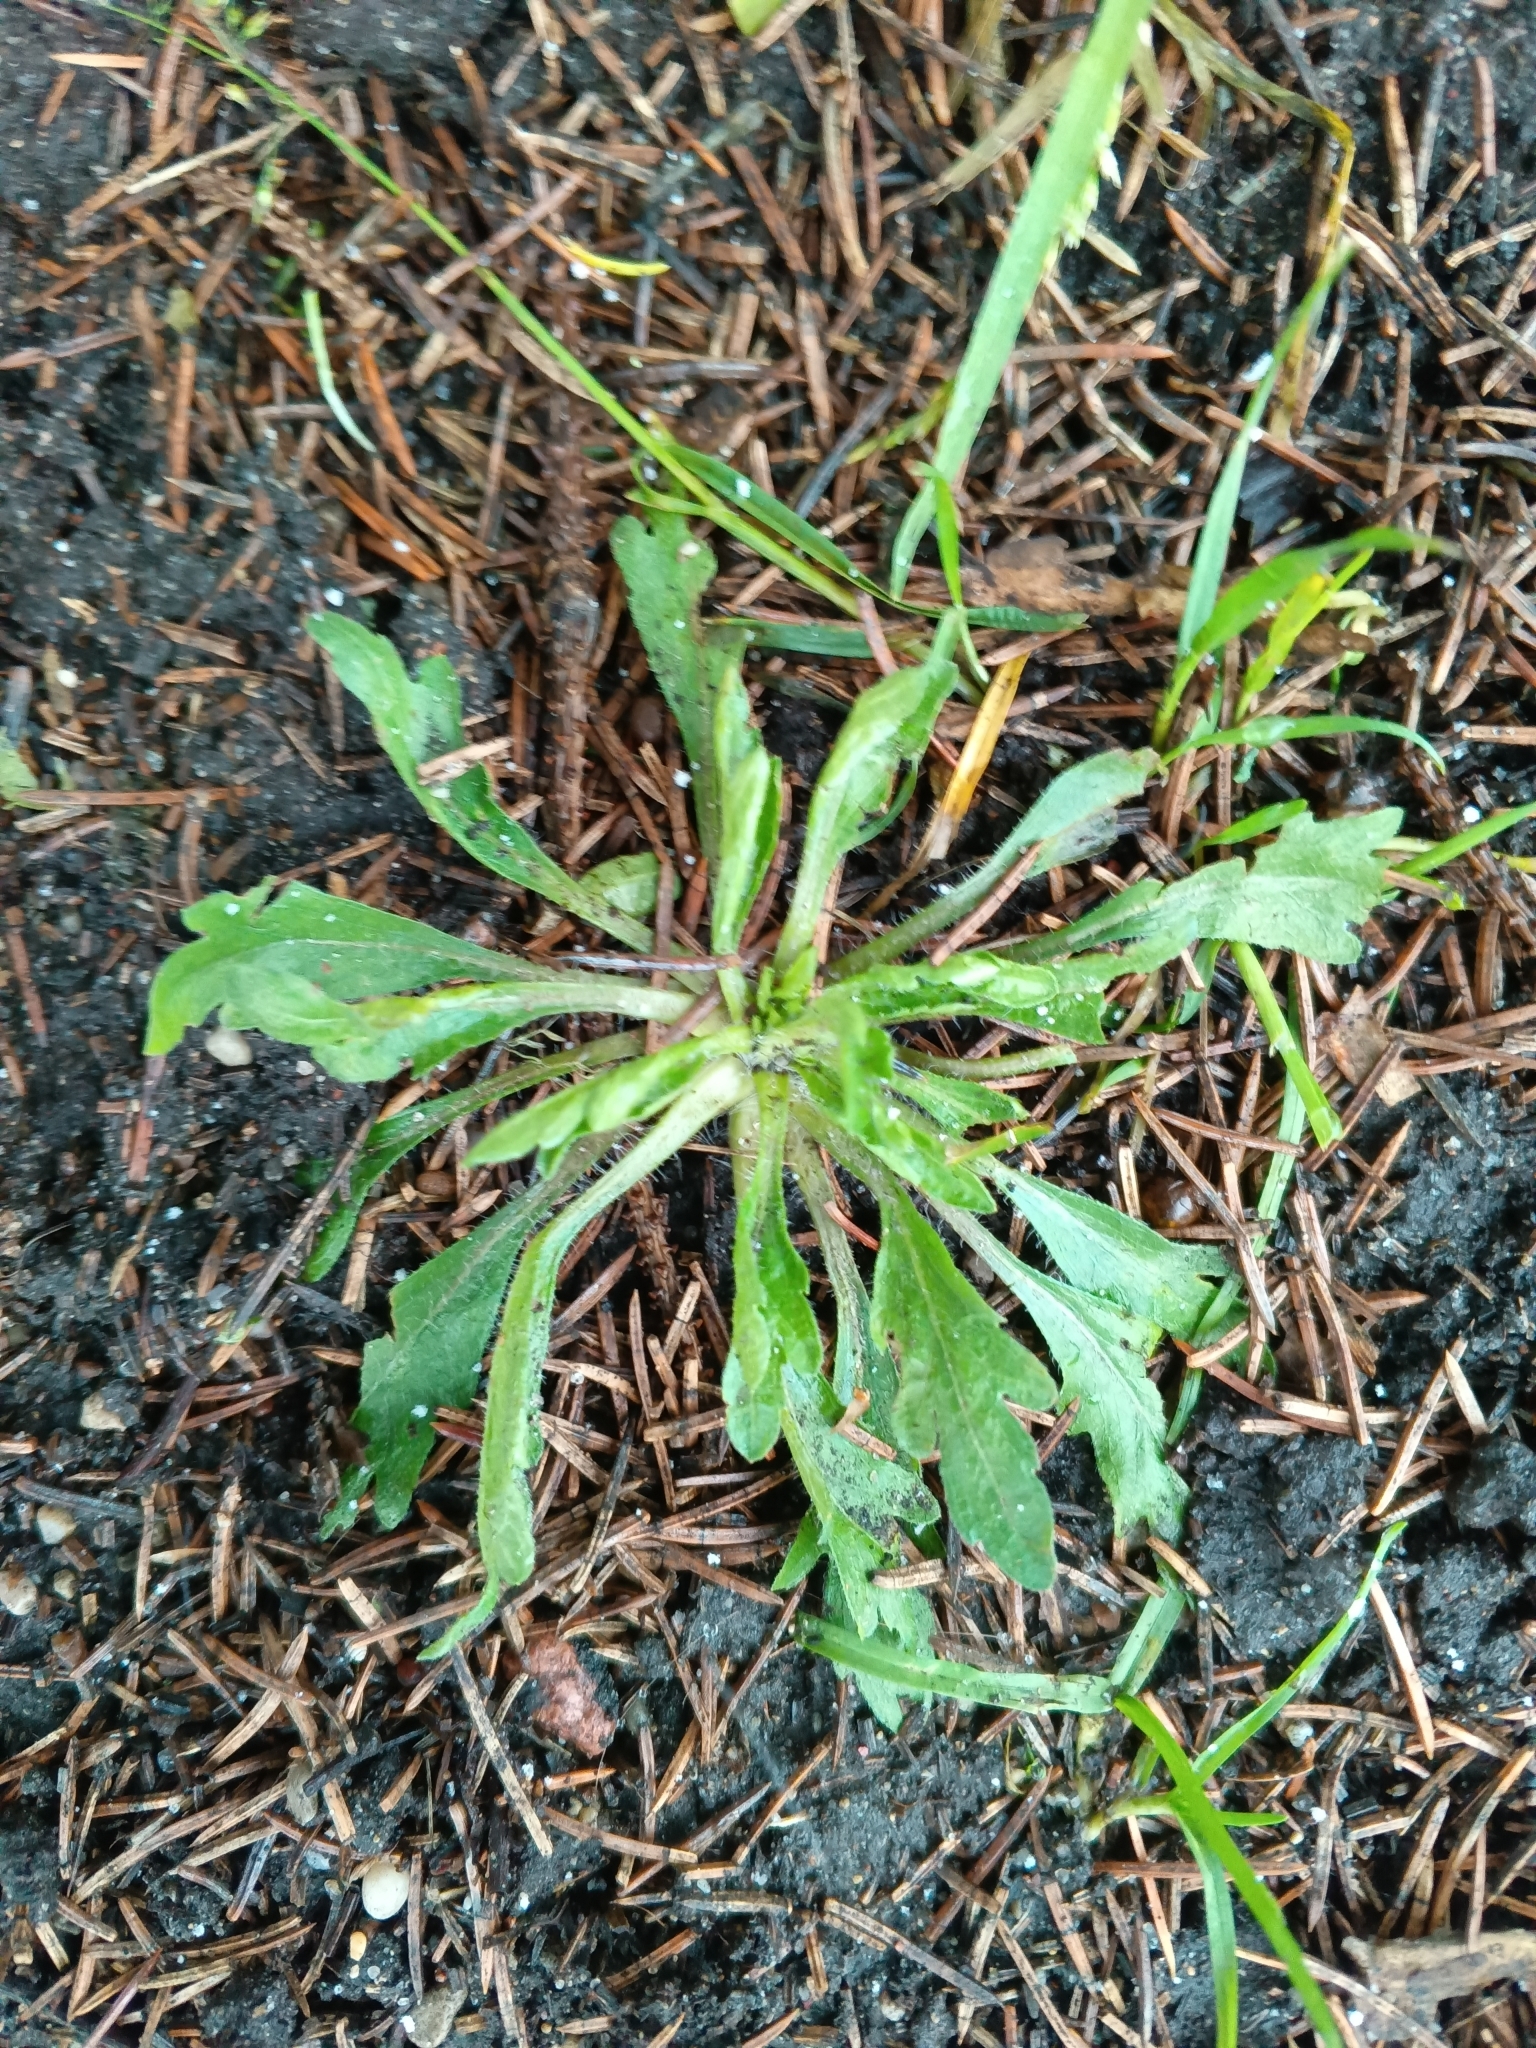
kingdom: Plantae
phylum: Tracheophyta
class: Magnoliopsida
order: Asterales
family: Asteraceae
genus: Erigeron
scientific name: Erigeron canadensis
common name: Canadian fleabane
